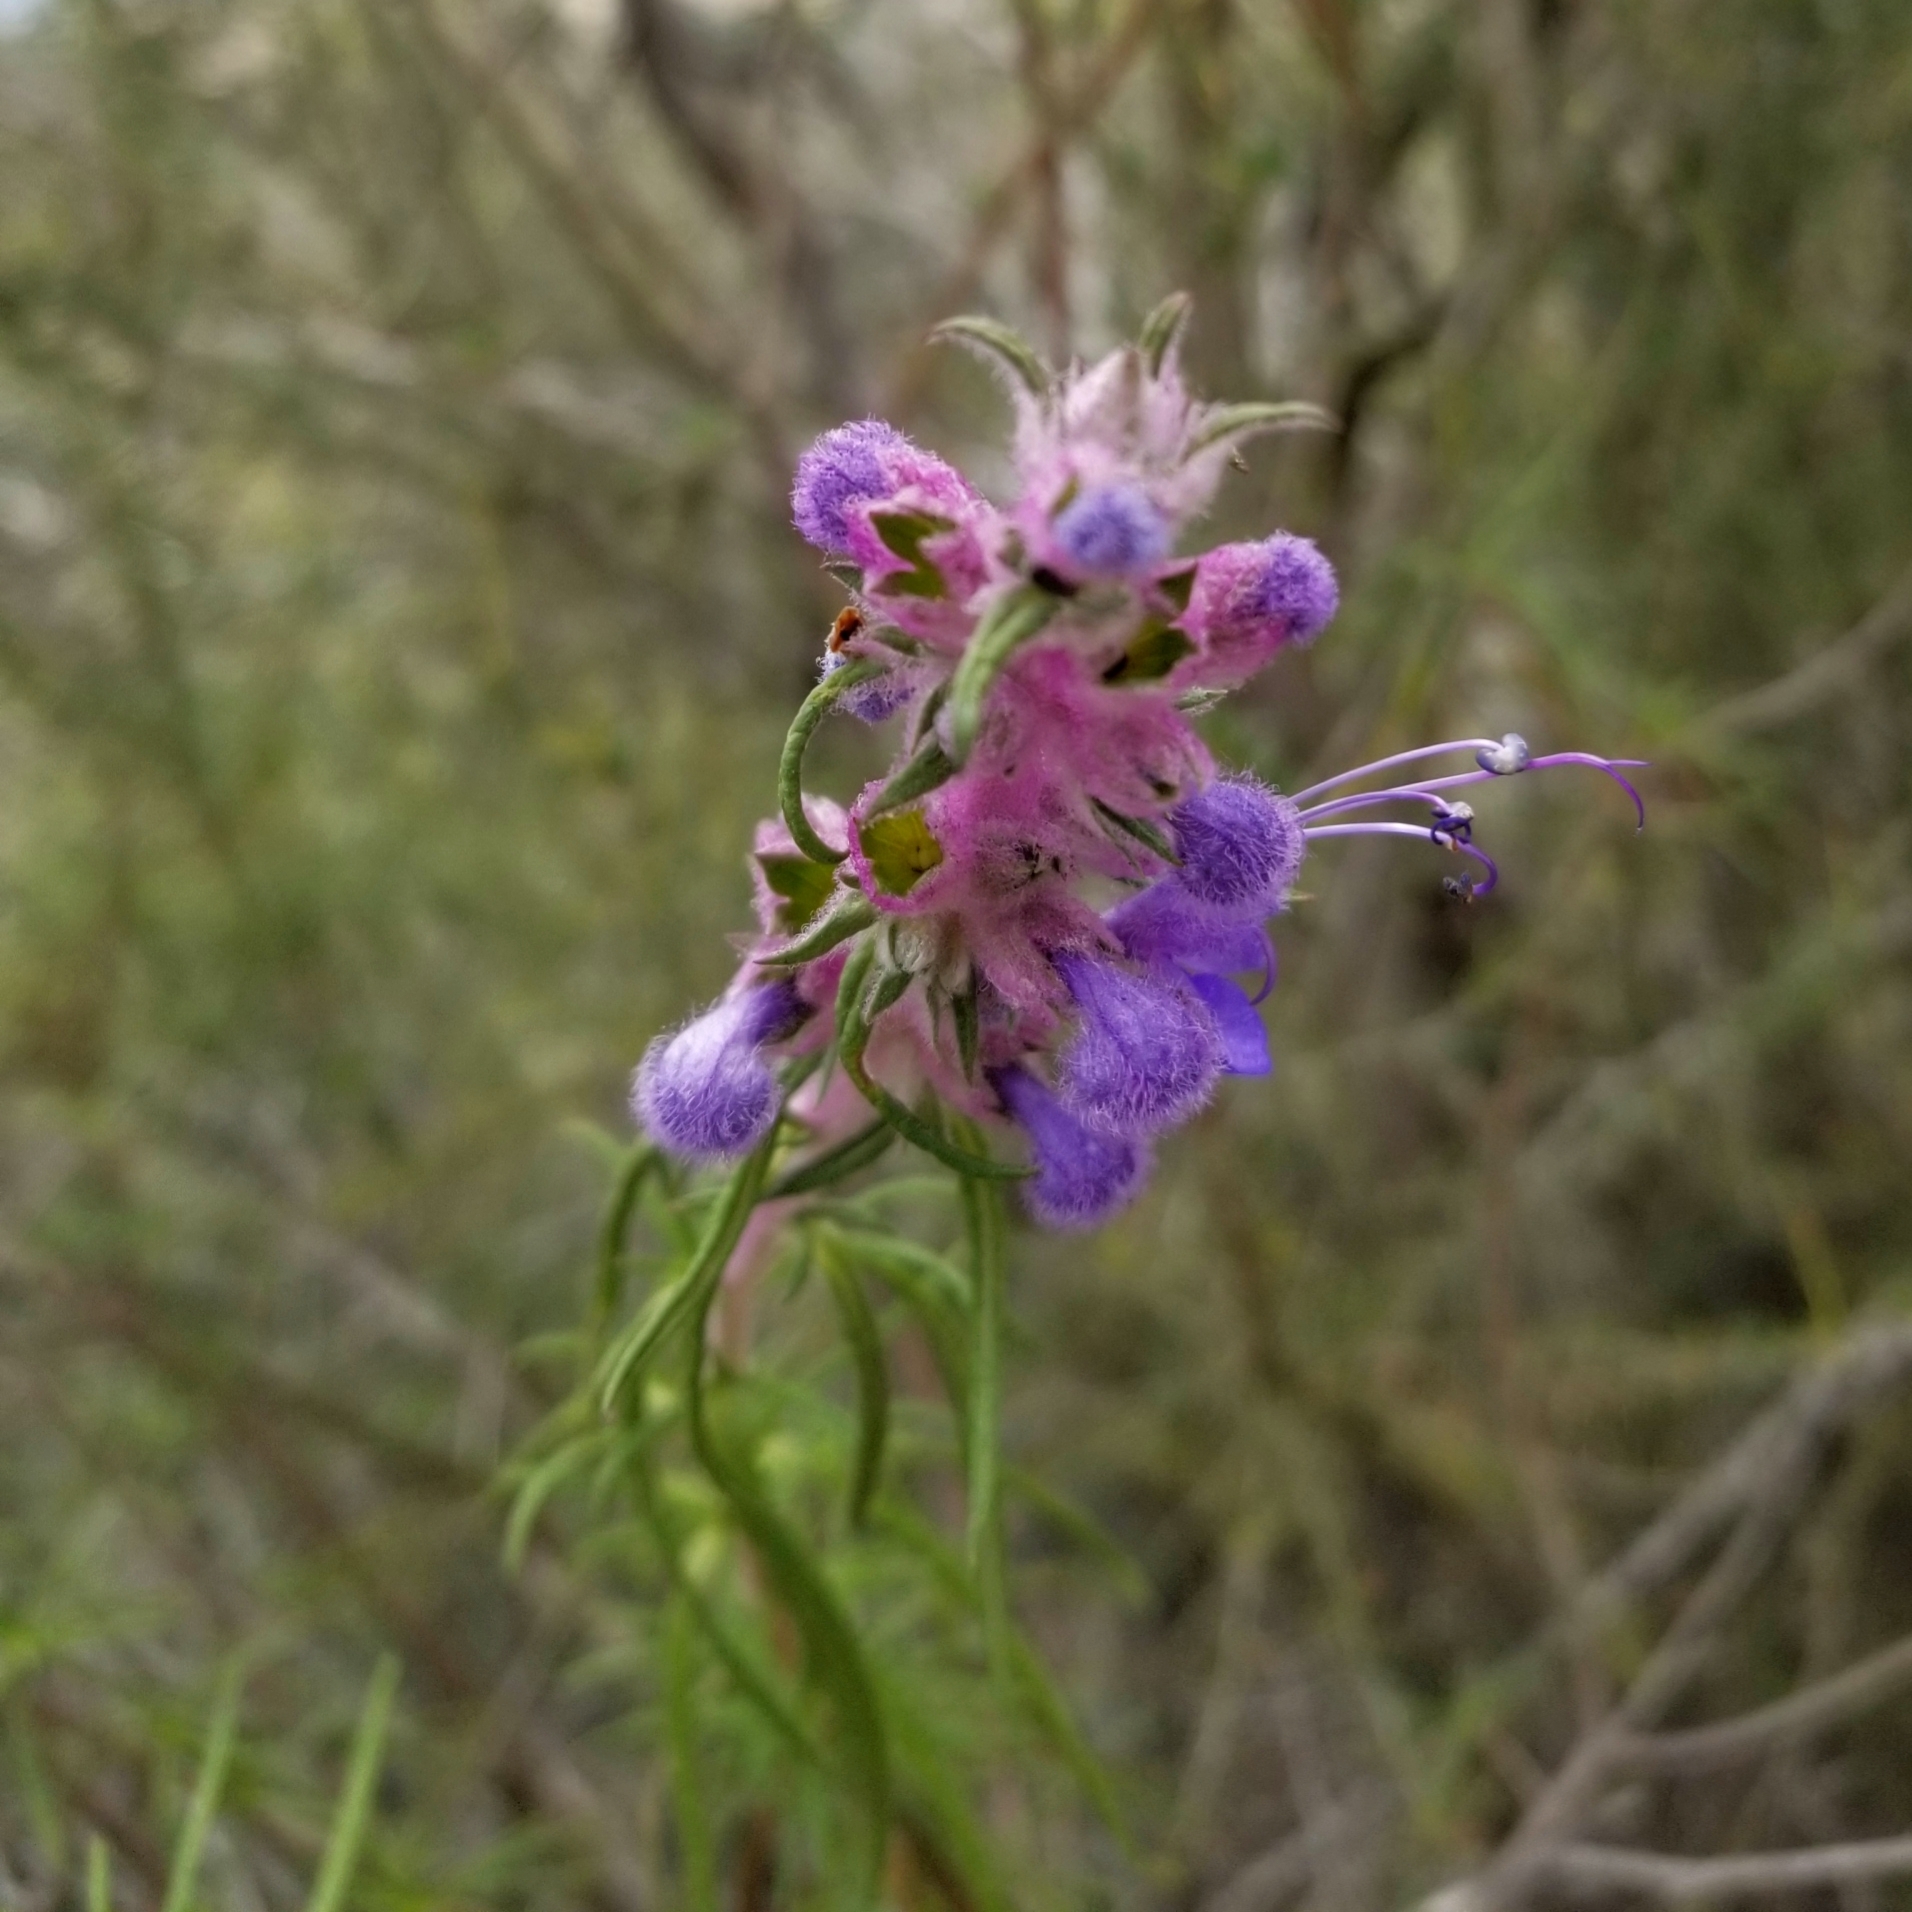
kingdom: Plantae
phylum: Tracheophyta
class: Magnoliopsida
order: Lamiales
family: Lamiaceae
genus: Trichostema
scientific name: Trichostema lanatum
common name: Woolly bluecurls
